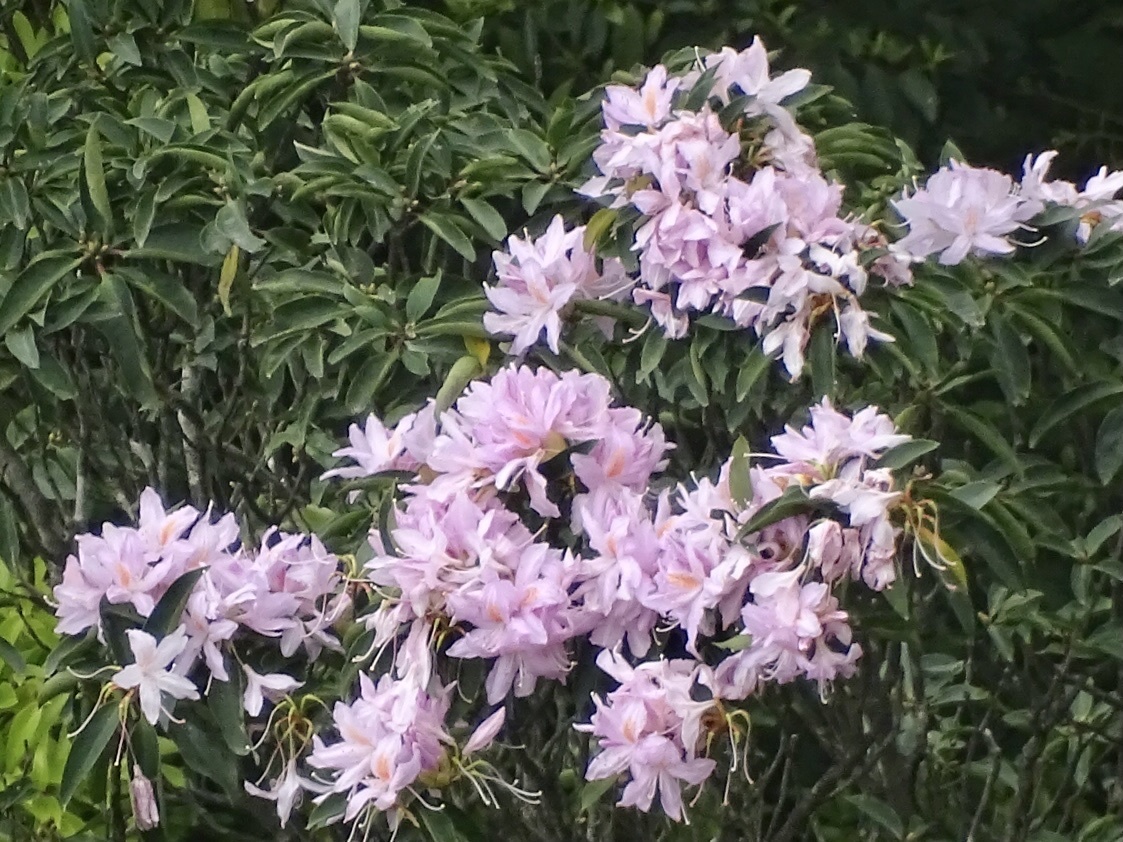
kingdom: Plantae
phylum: Tracheophyta
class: Magnoliopsida
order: Ericales
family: Ericaceae
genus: Rhododendron
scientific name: Rhododendron moulmainense
